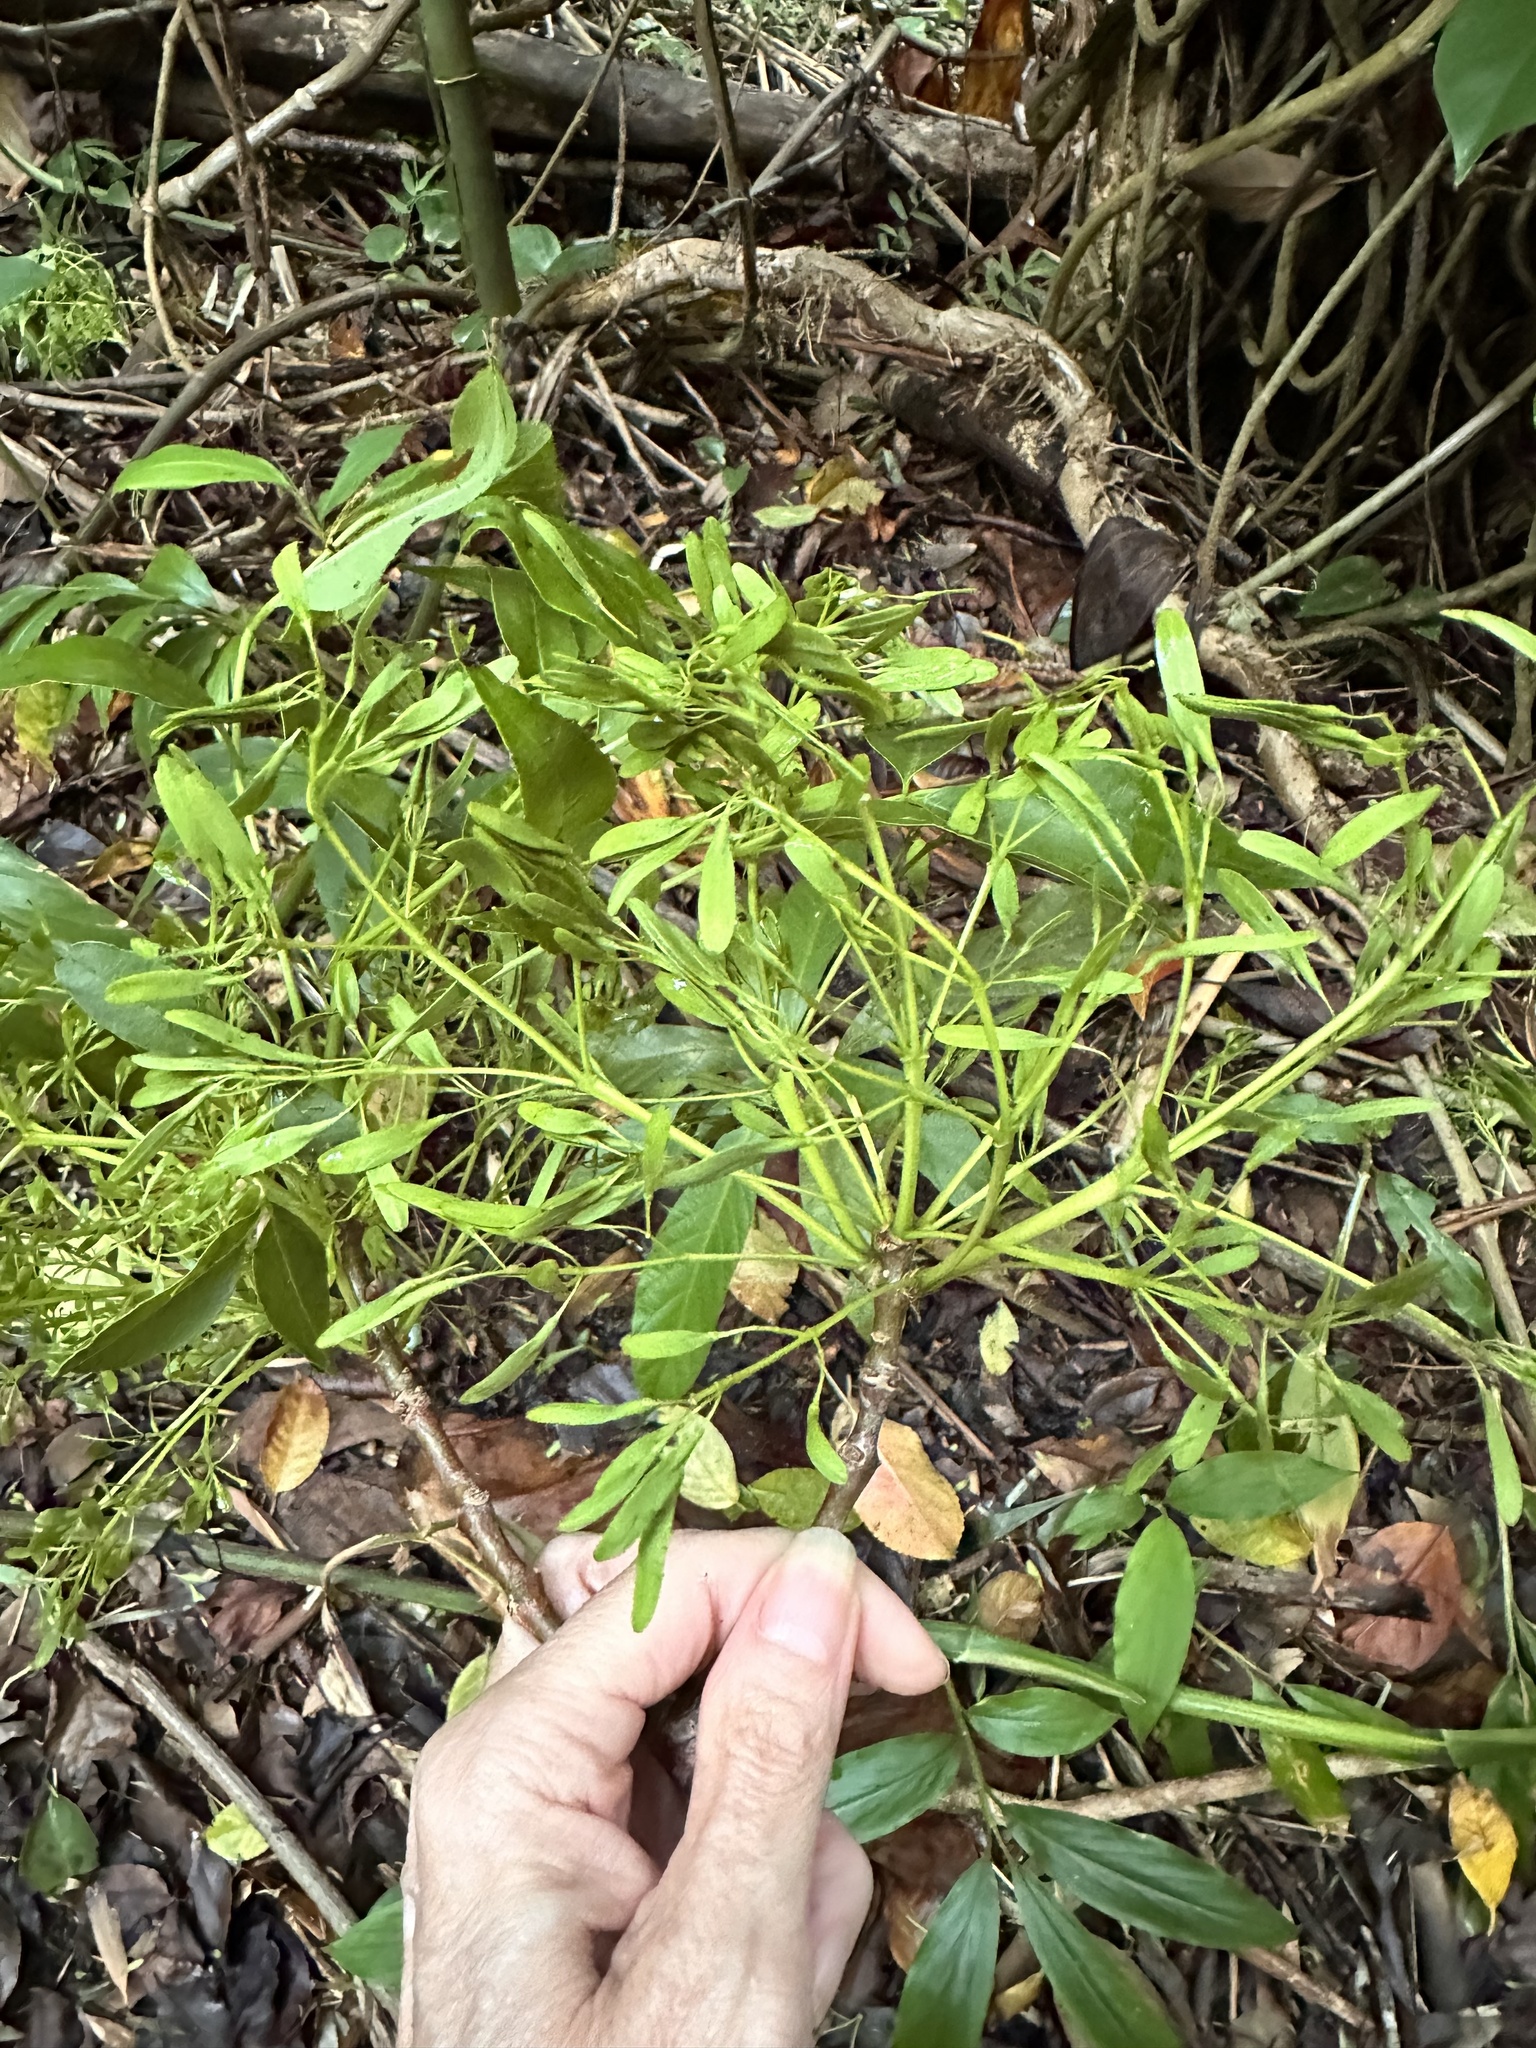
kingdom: Plantae
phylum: Tracheophyta
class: Magnoliopsida
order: Lamiales
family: Oleaceae
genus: Fraxinus
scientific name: Fraxinus uhdei
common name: Shamel ash
